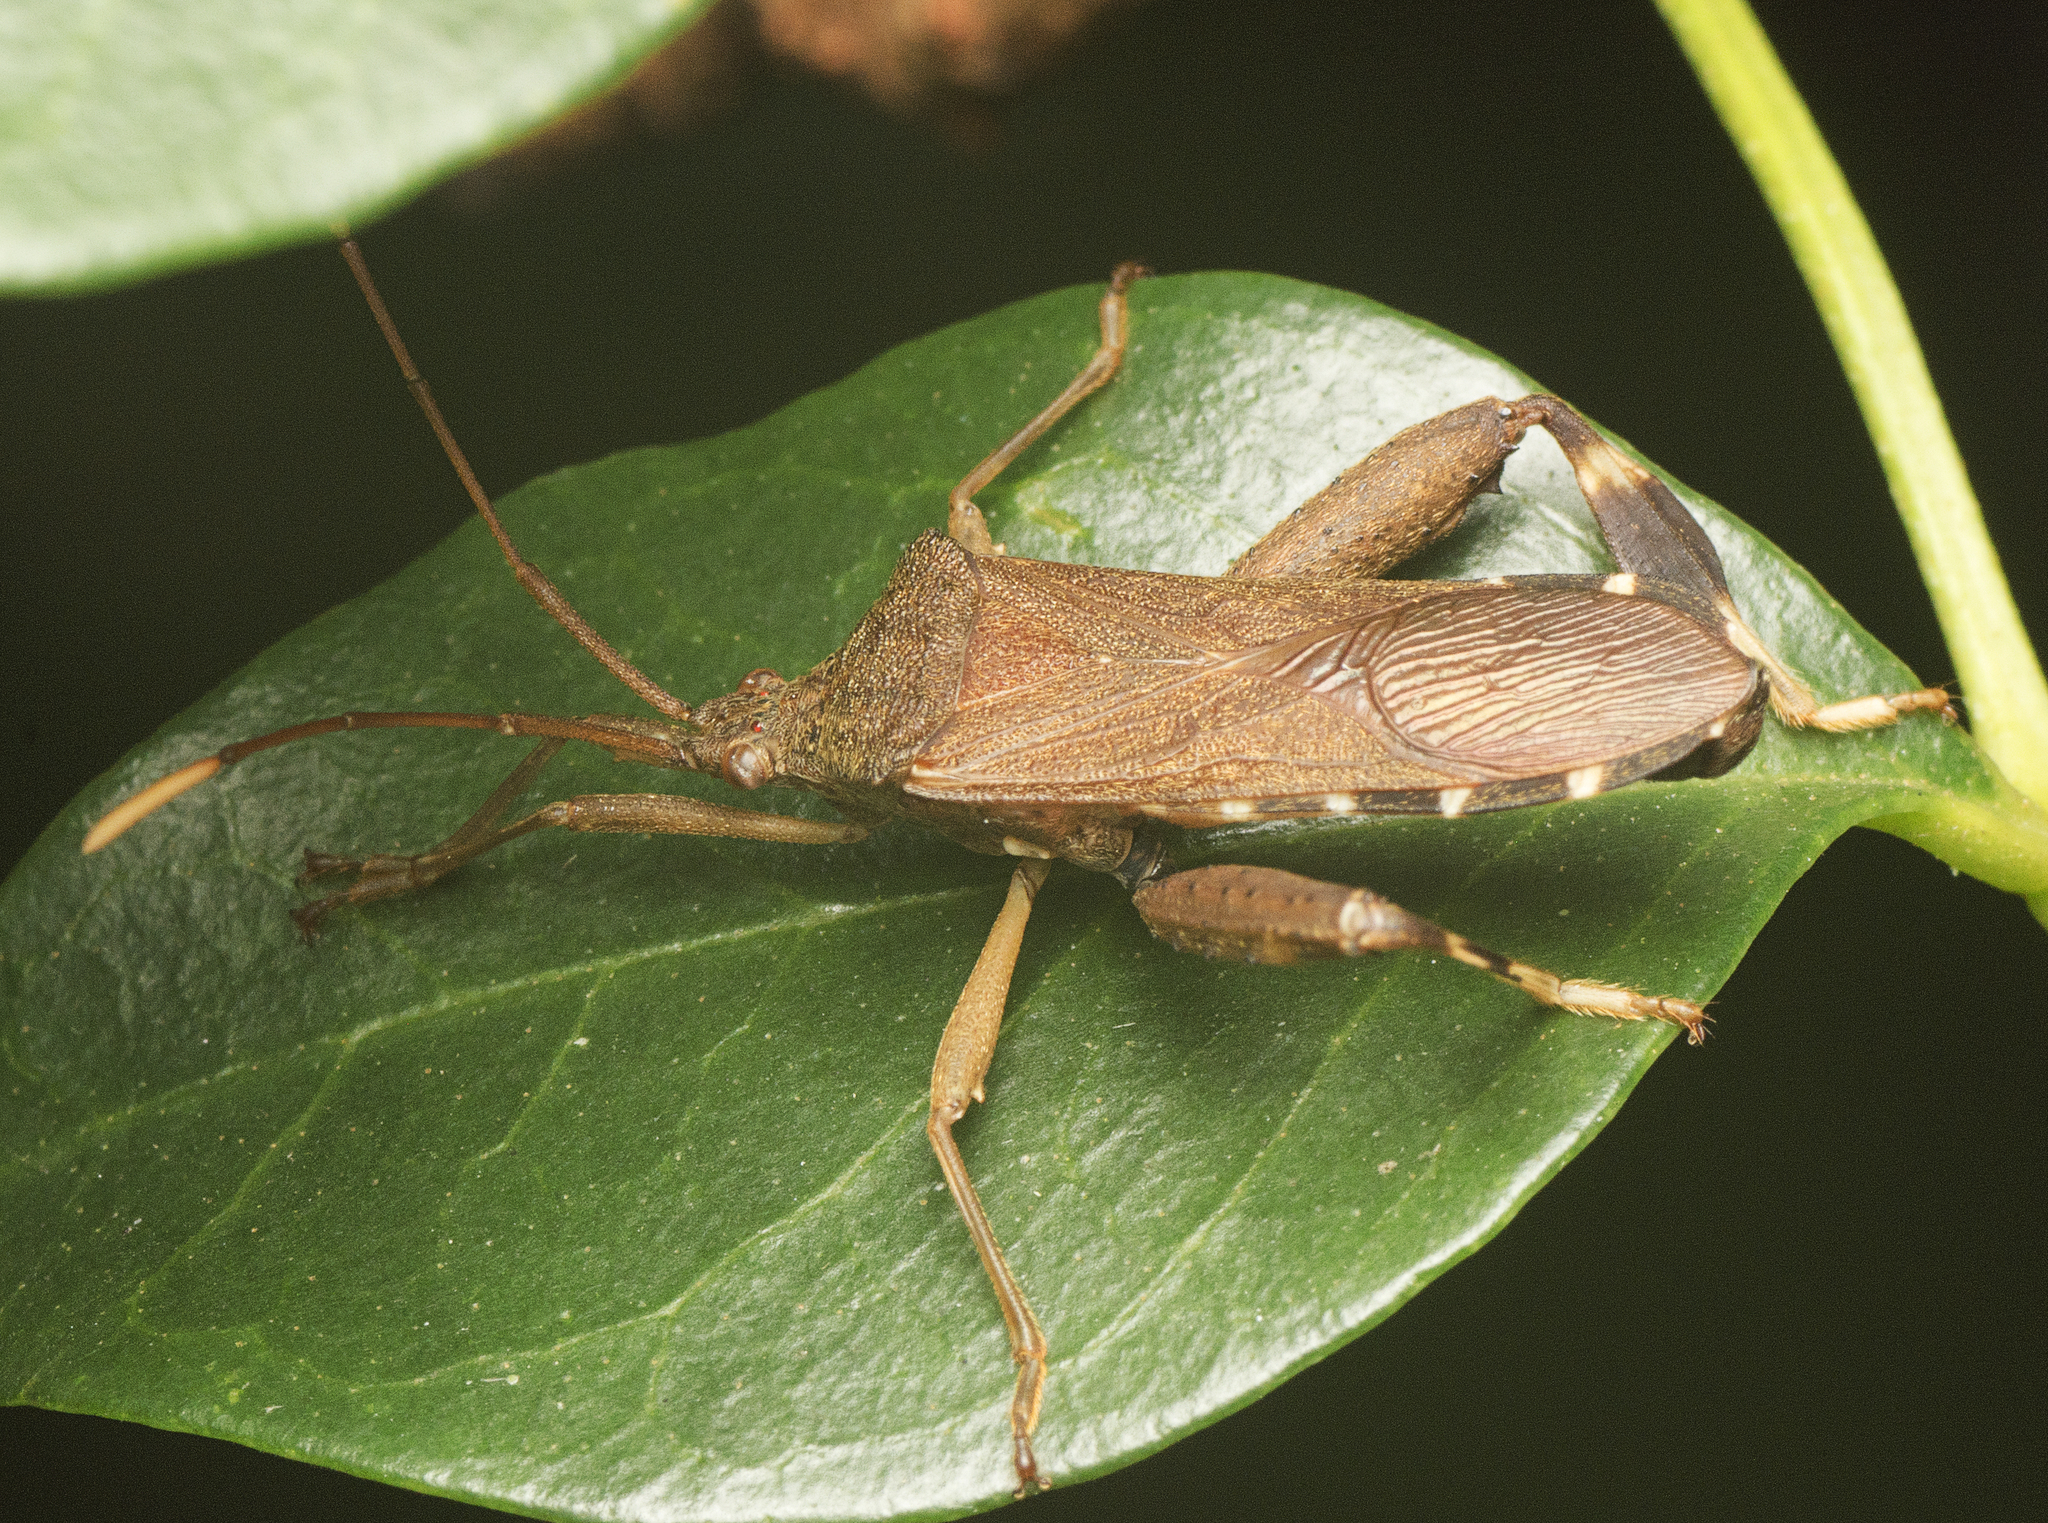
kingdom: Animalia
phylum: Arthropoda
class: Insecta
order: Hemiptera
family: Coreidae
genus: Tambourina
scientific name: Tambourina kelsalli
